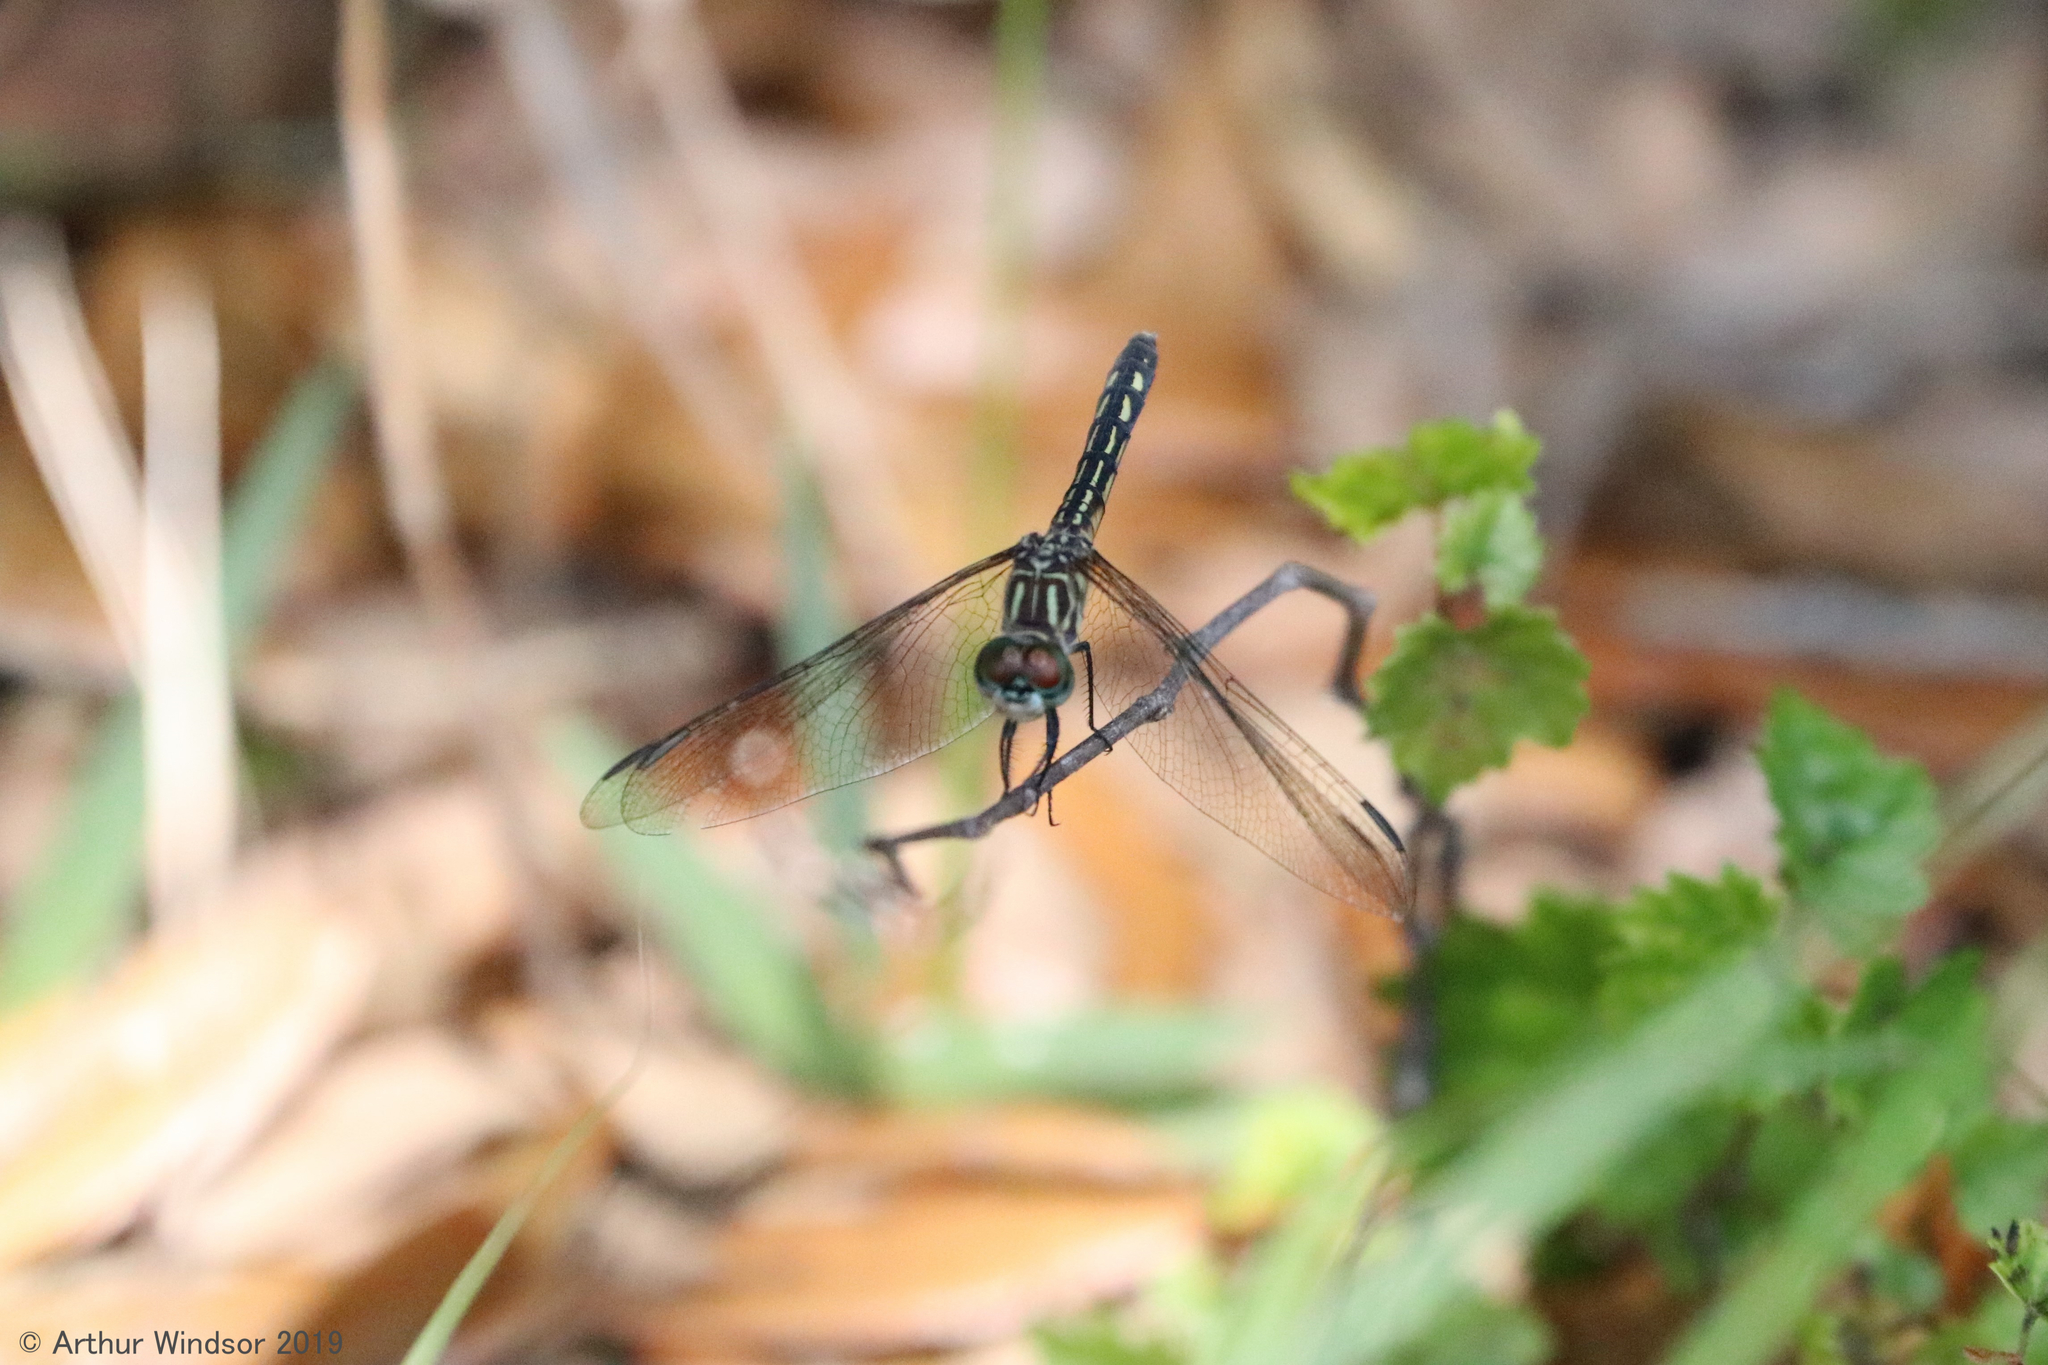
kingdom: Animalia
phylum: Arthropoda
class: Insecta
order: Odonata
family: Libellulidae
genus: Pachydiplax
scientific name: Pachydiplax longipennis
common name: Blue dasher
